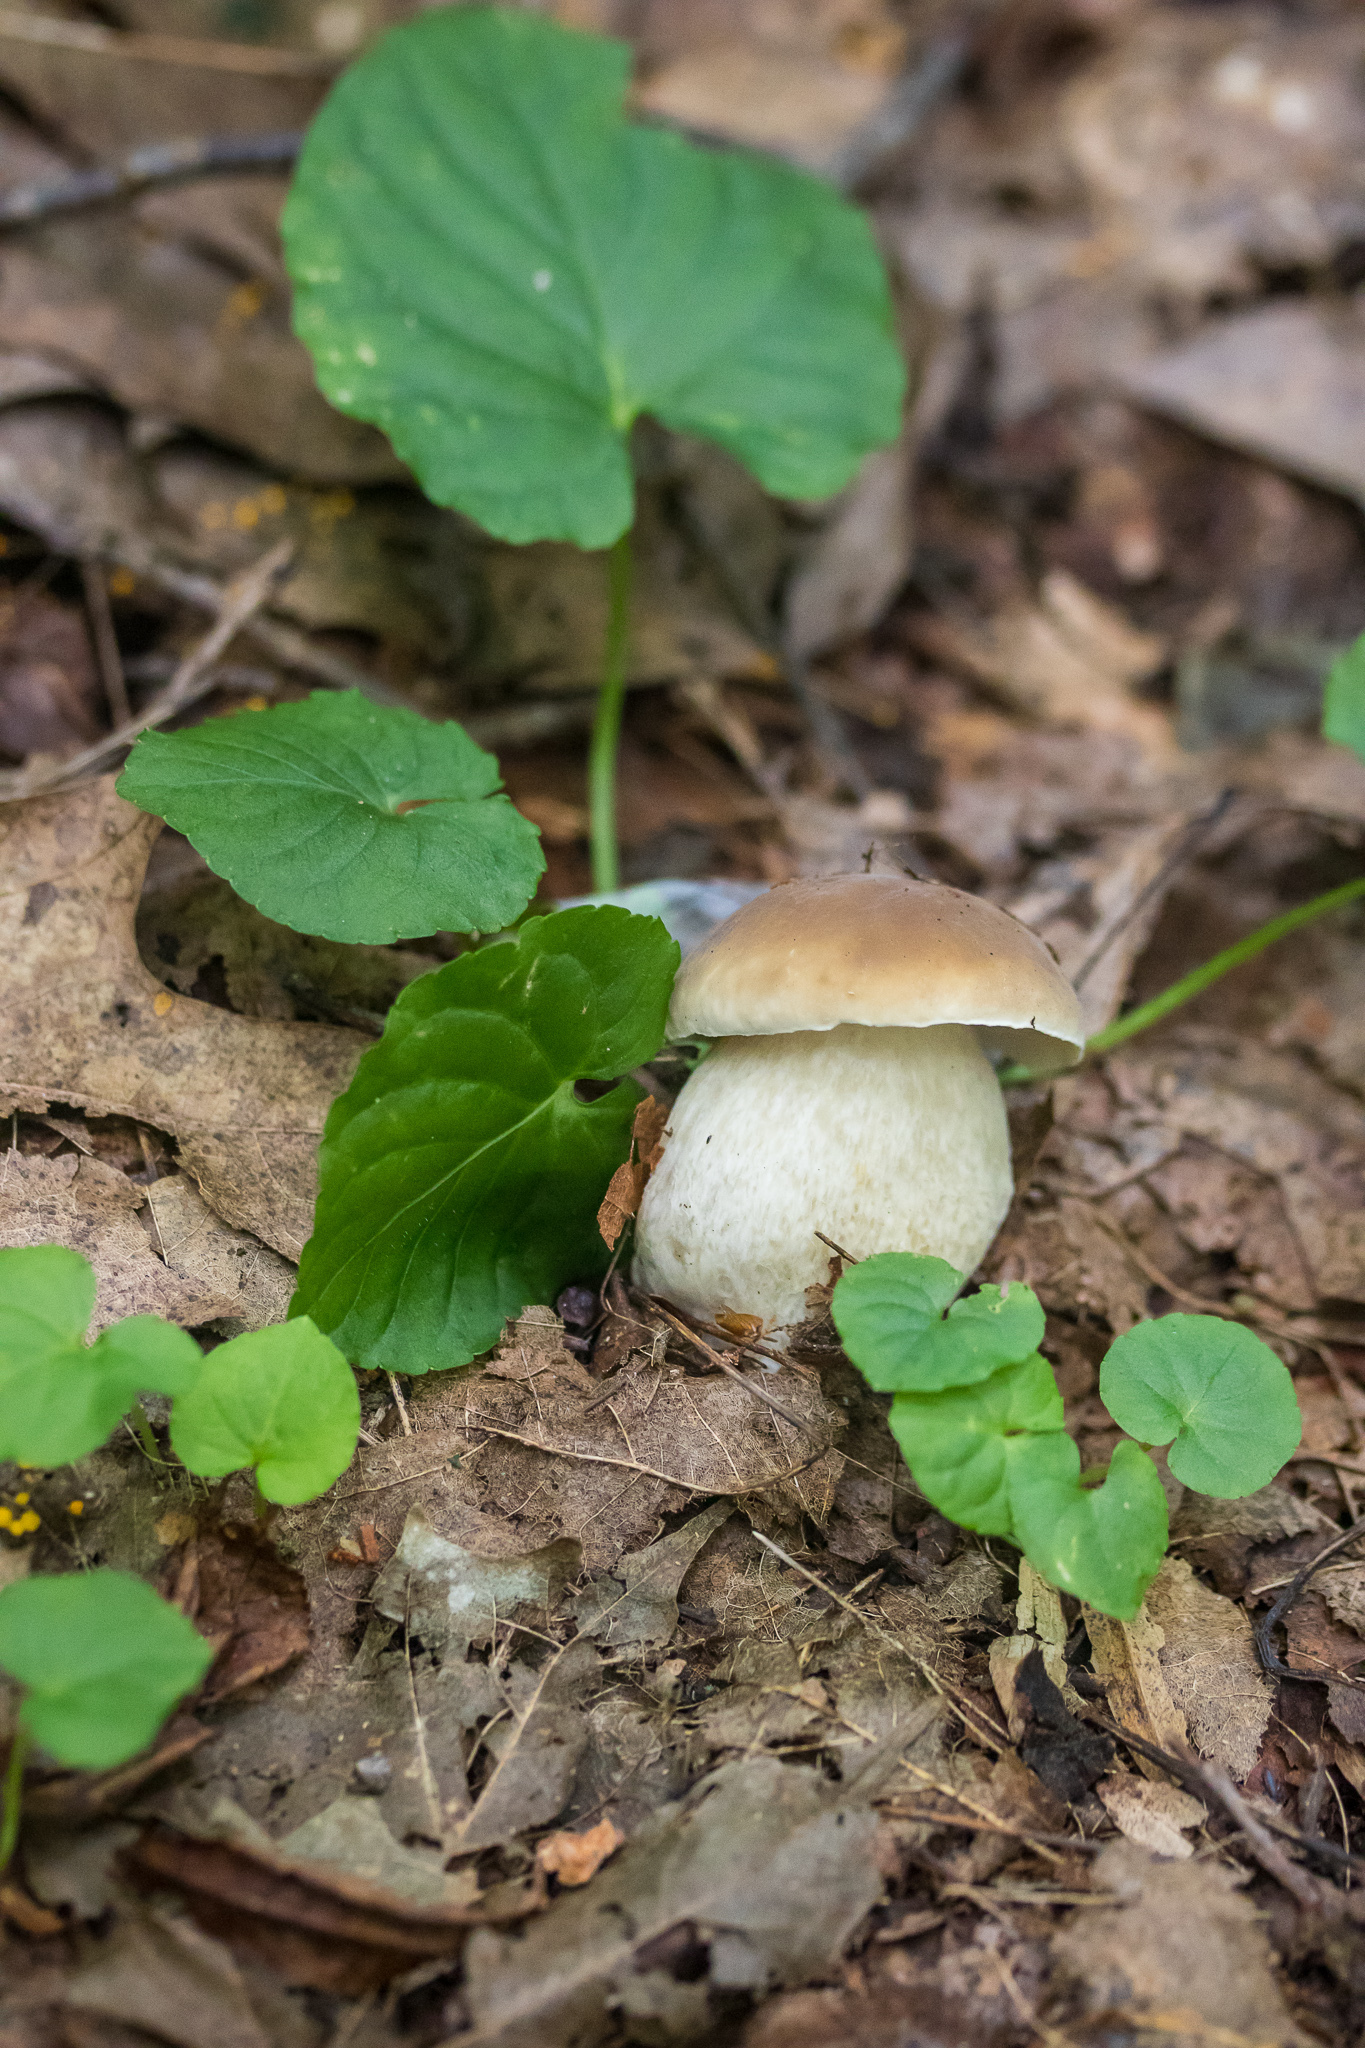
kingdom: Fungi
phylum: Basidiomycota
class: Agaricomycetes
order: Boletales
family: Boletaceae
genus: Boletus
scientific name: Boletus nobilis
